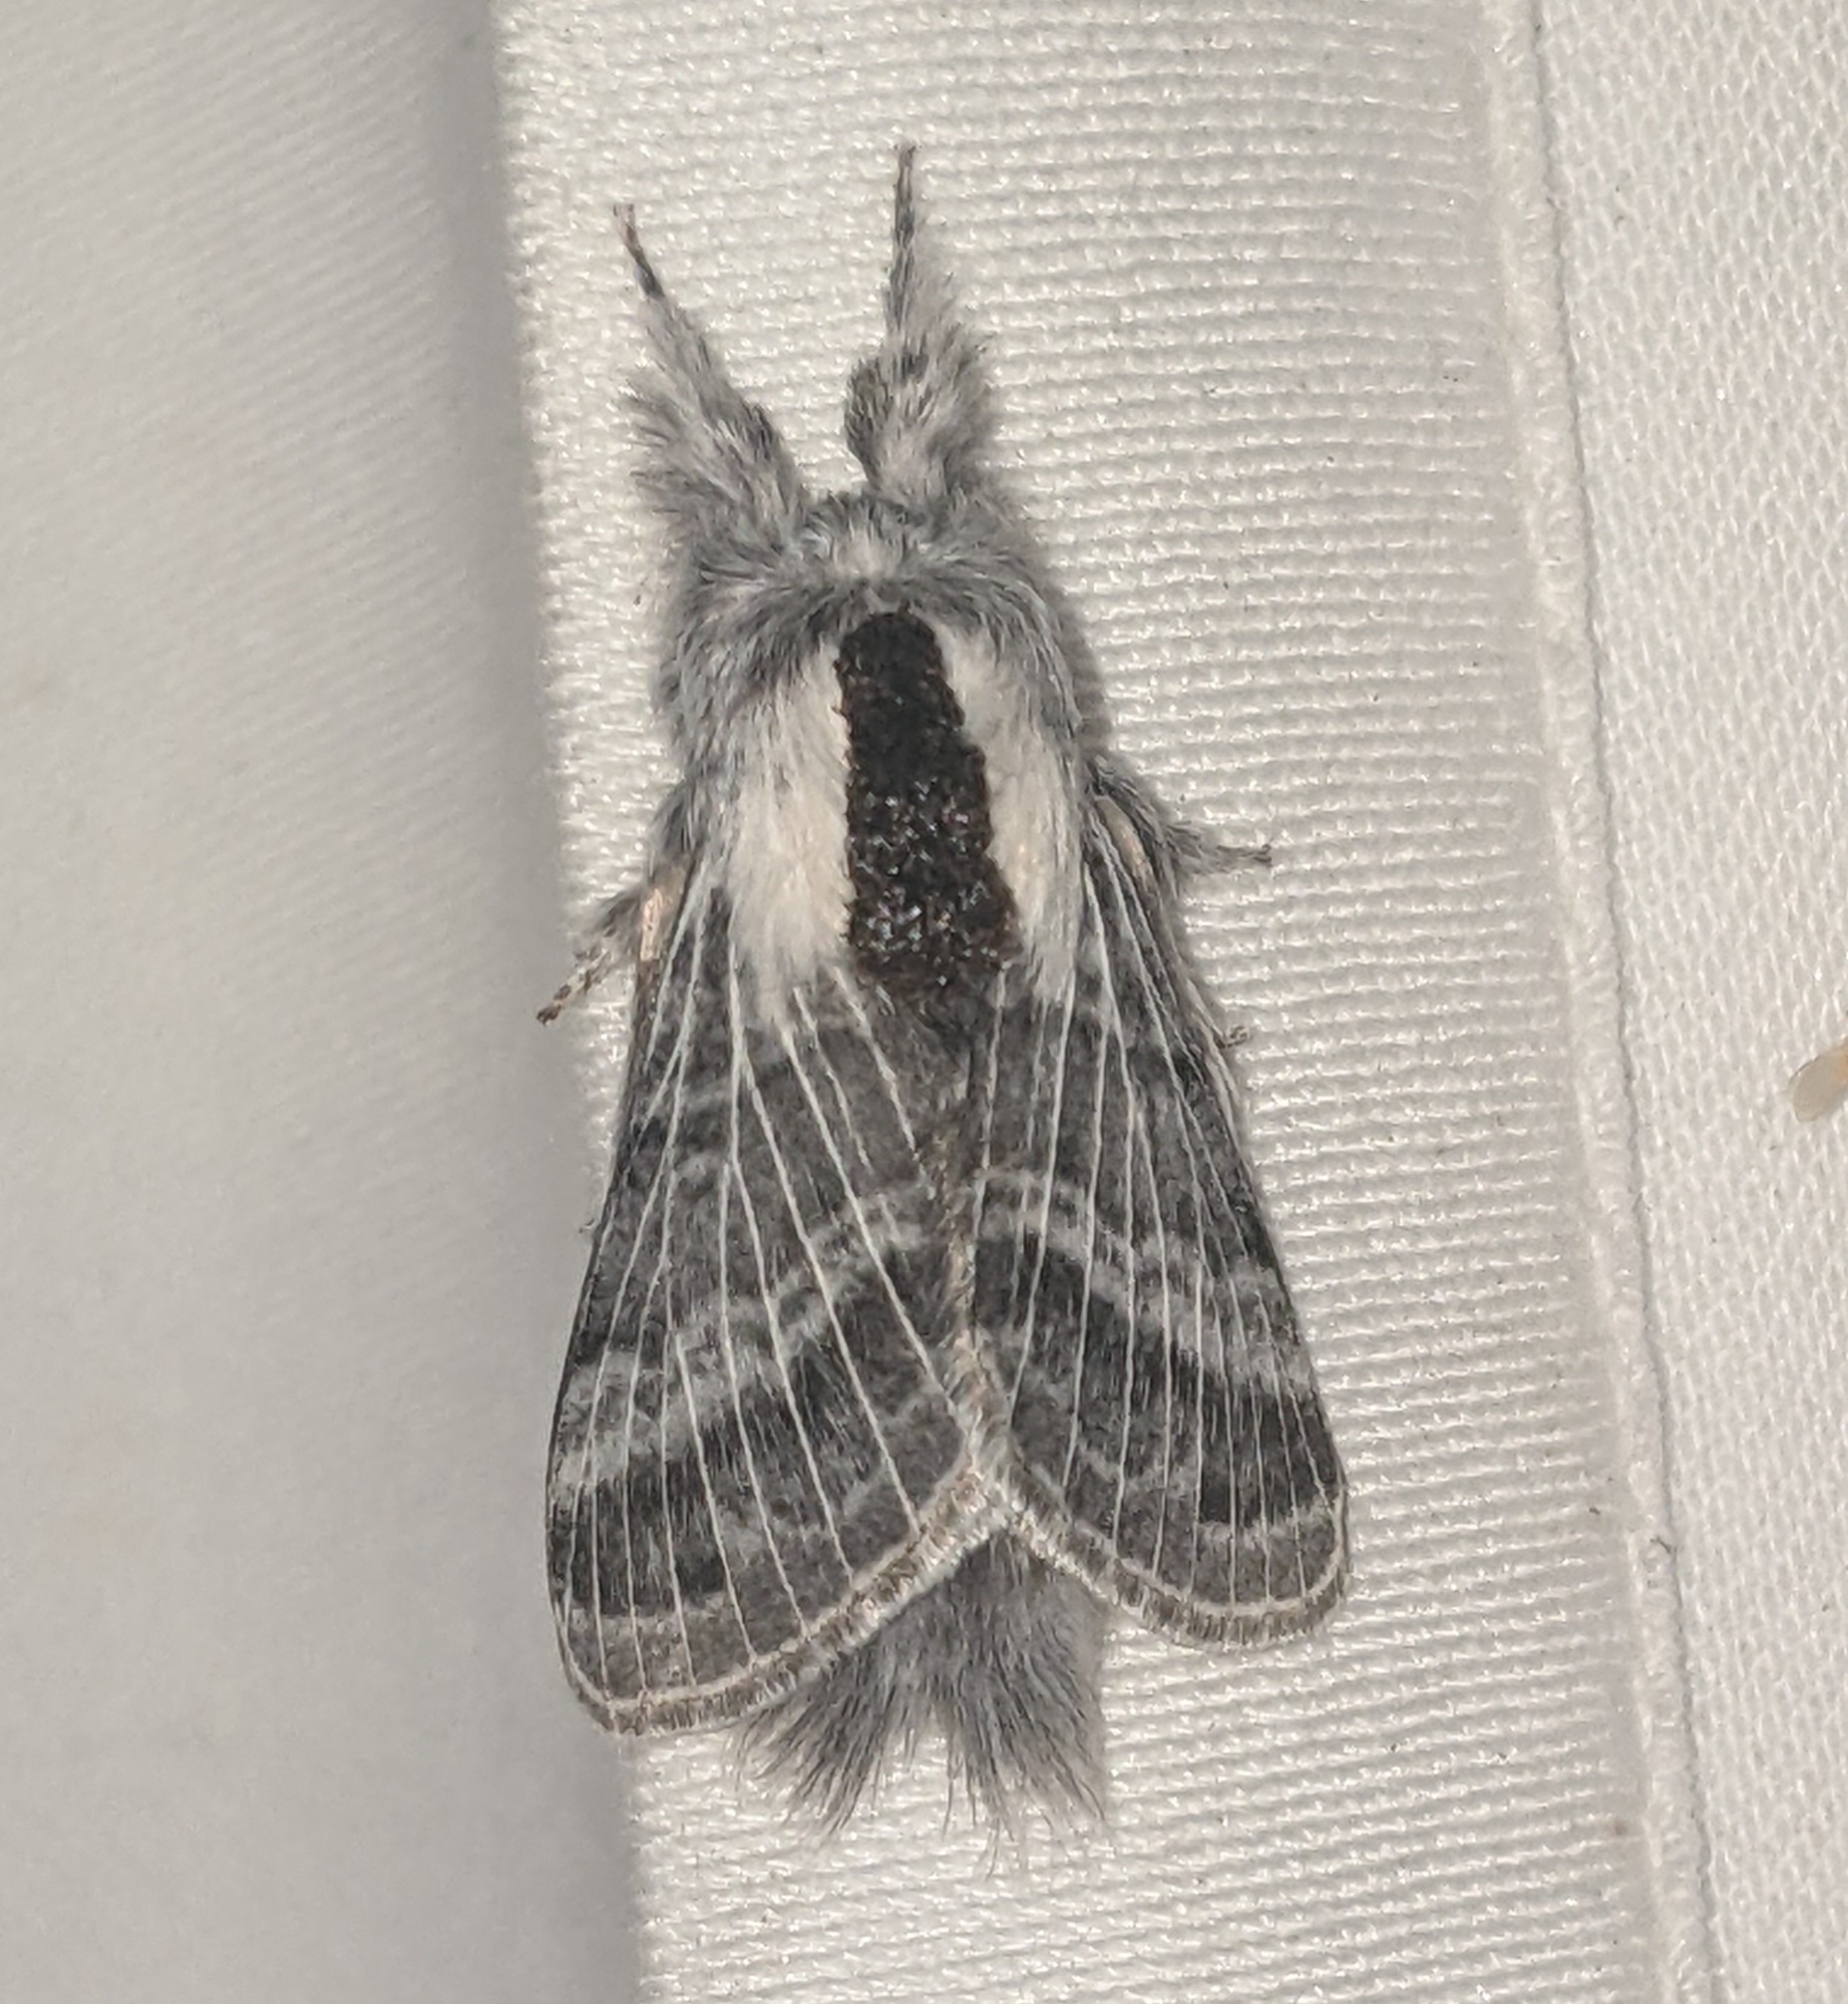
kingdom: Animalia
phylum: Arthropoda
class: Insecta
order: Lepidoptera
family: Lasiocampidae
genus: Tolype
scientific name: Tolype dayi
